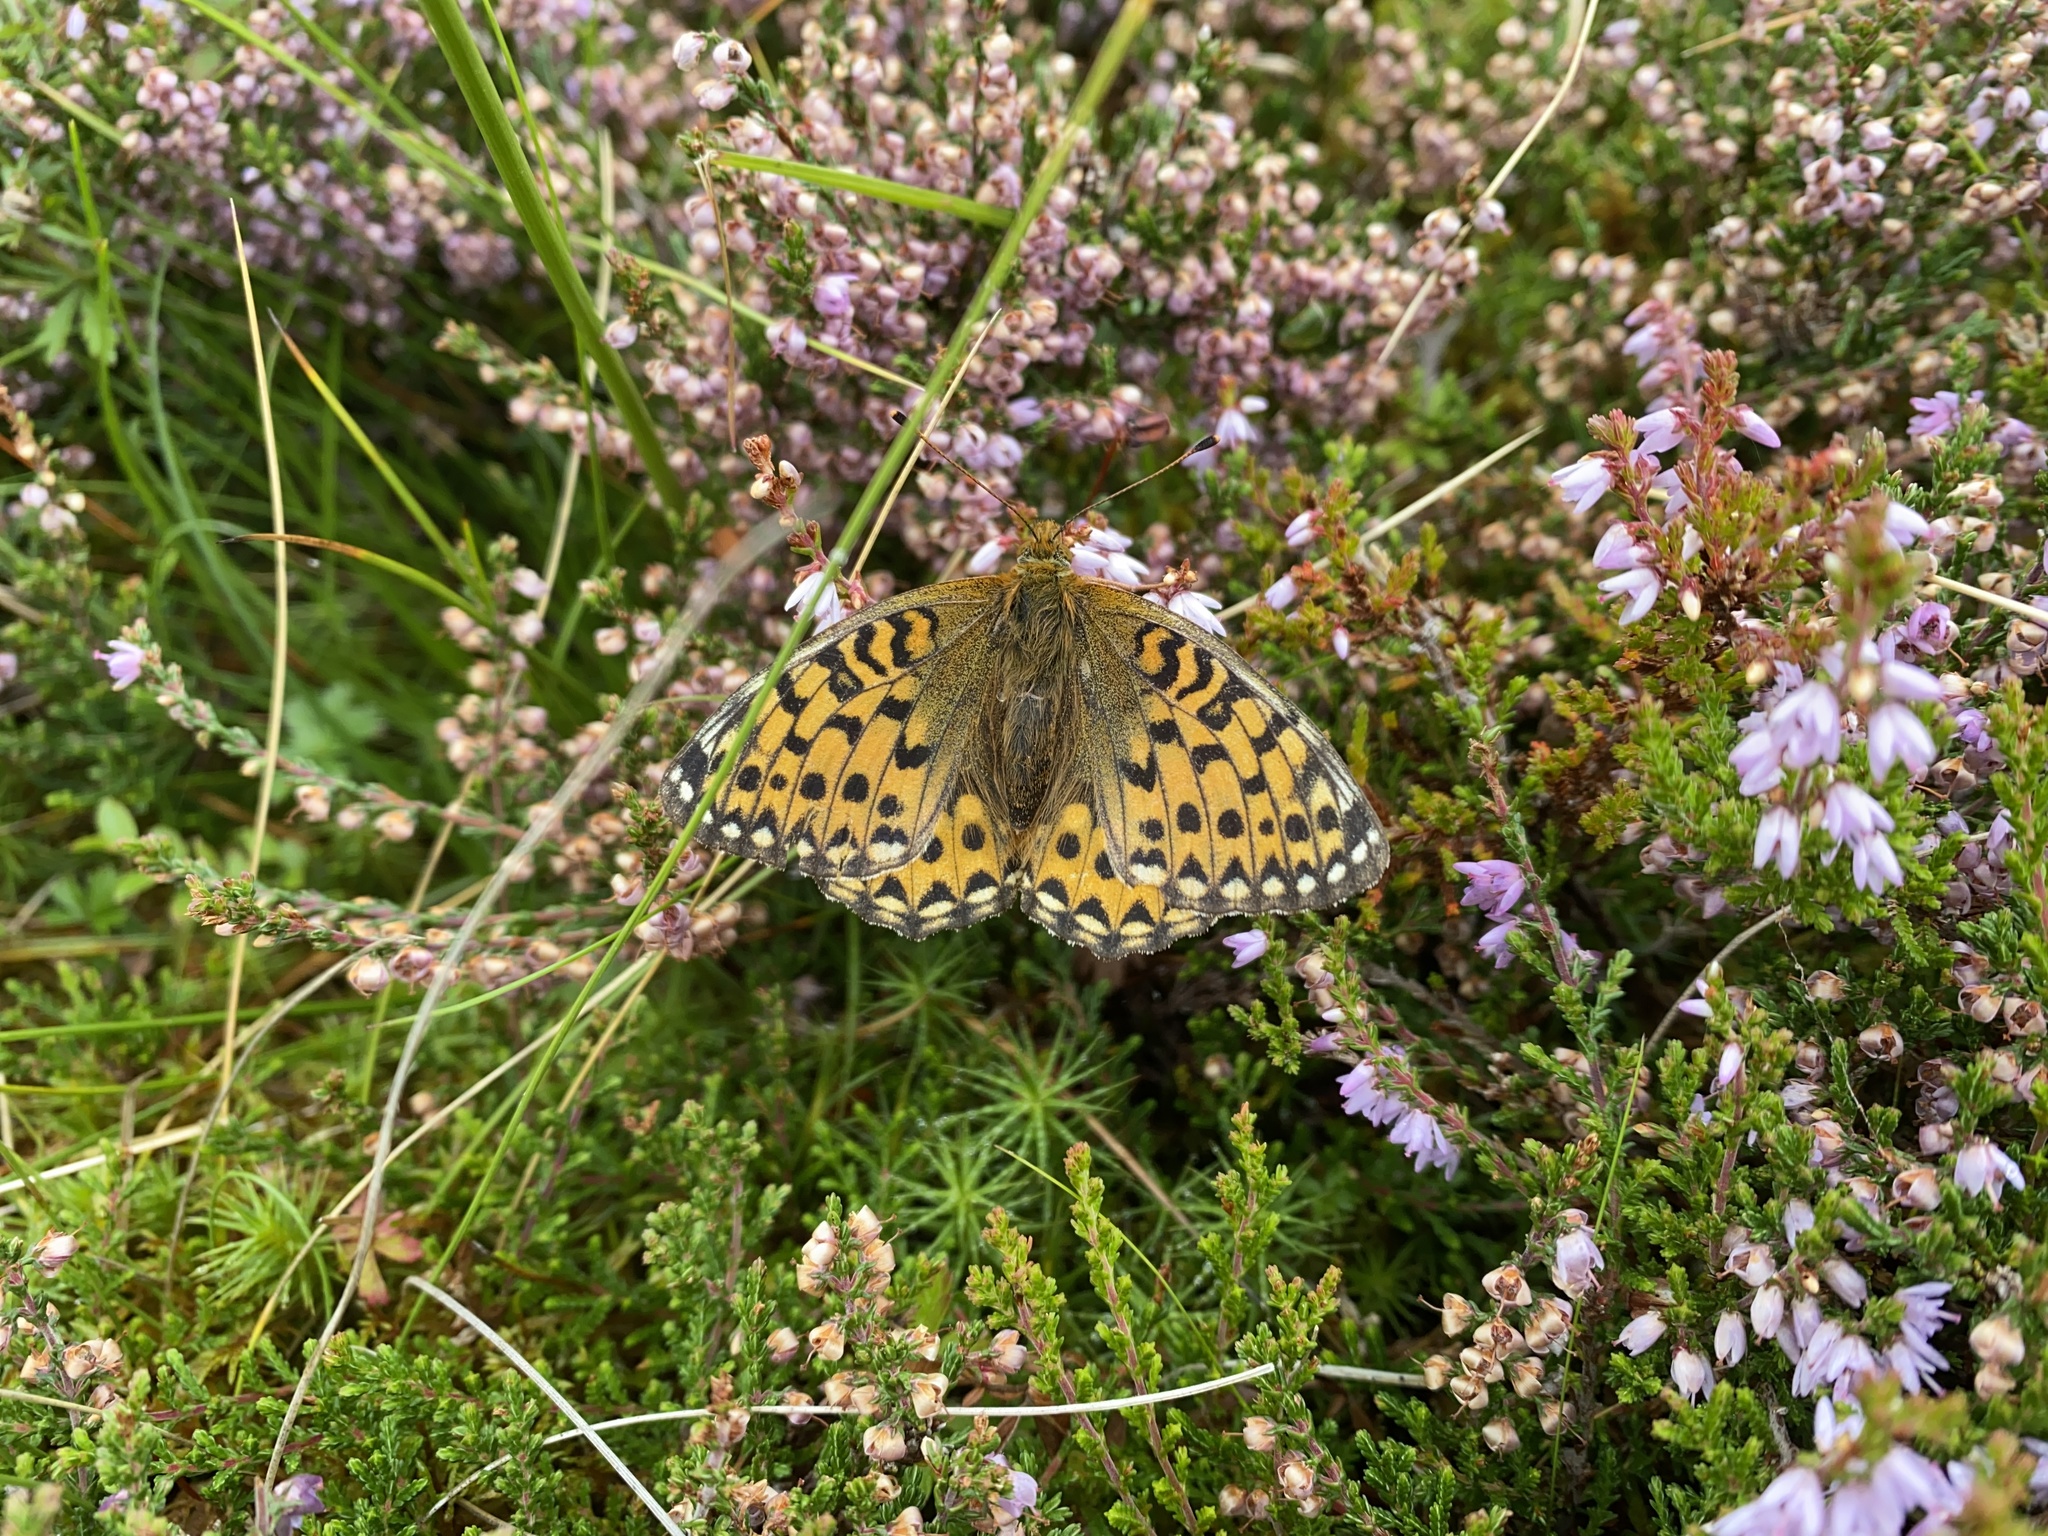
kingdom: Animalia
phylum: Arthropoda
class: Insecta
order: Lepidoptera
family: Nymphalidae
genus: Speyeria
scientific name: Speyeria aglaja
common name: Dark green fritillary
